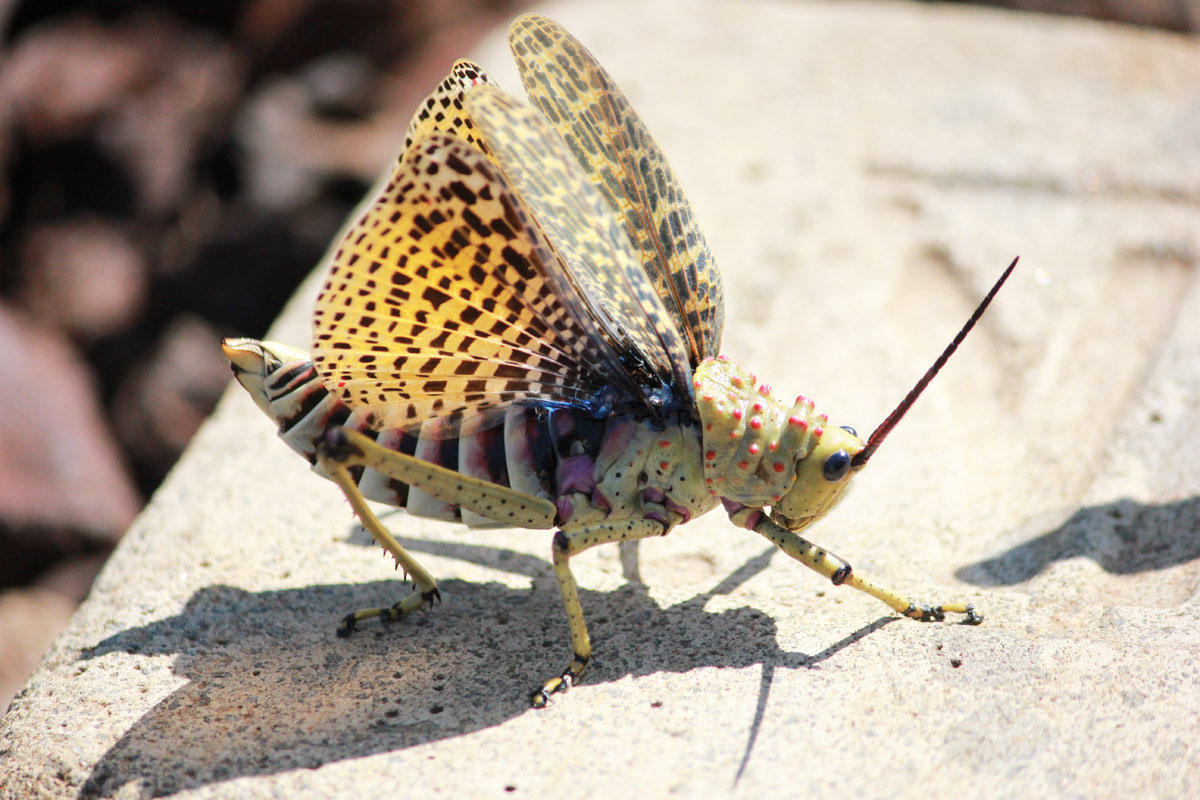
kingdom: Animalia
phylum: Arthropoda
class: Insecta
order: Orthoptera
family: Pyrgomorphidae
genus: Phymateus
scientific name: Phymateus baccatus
